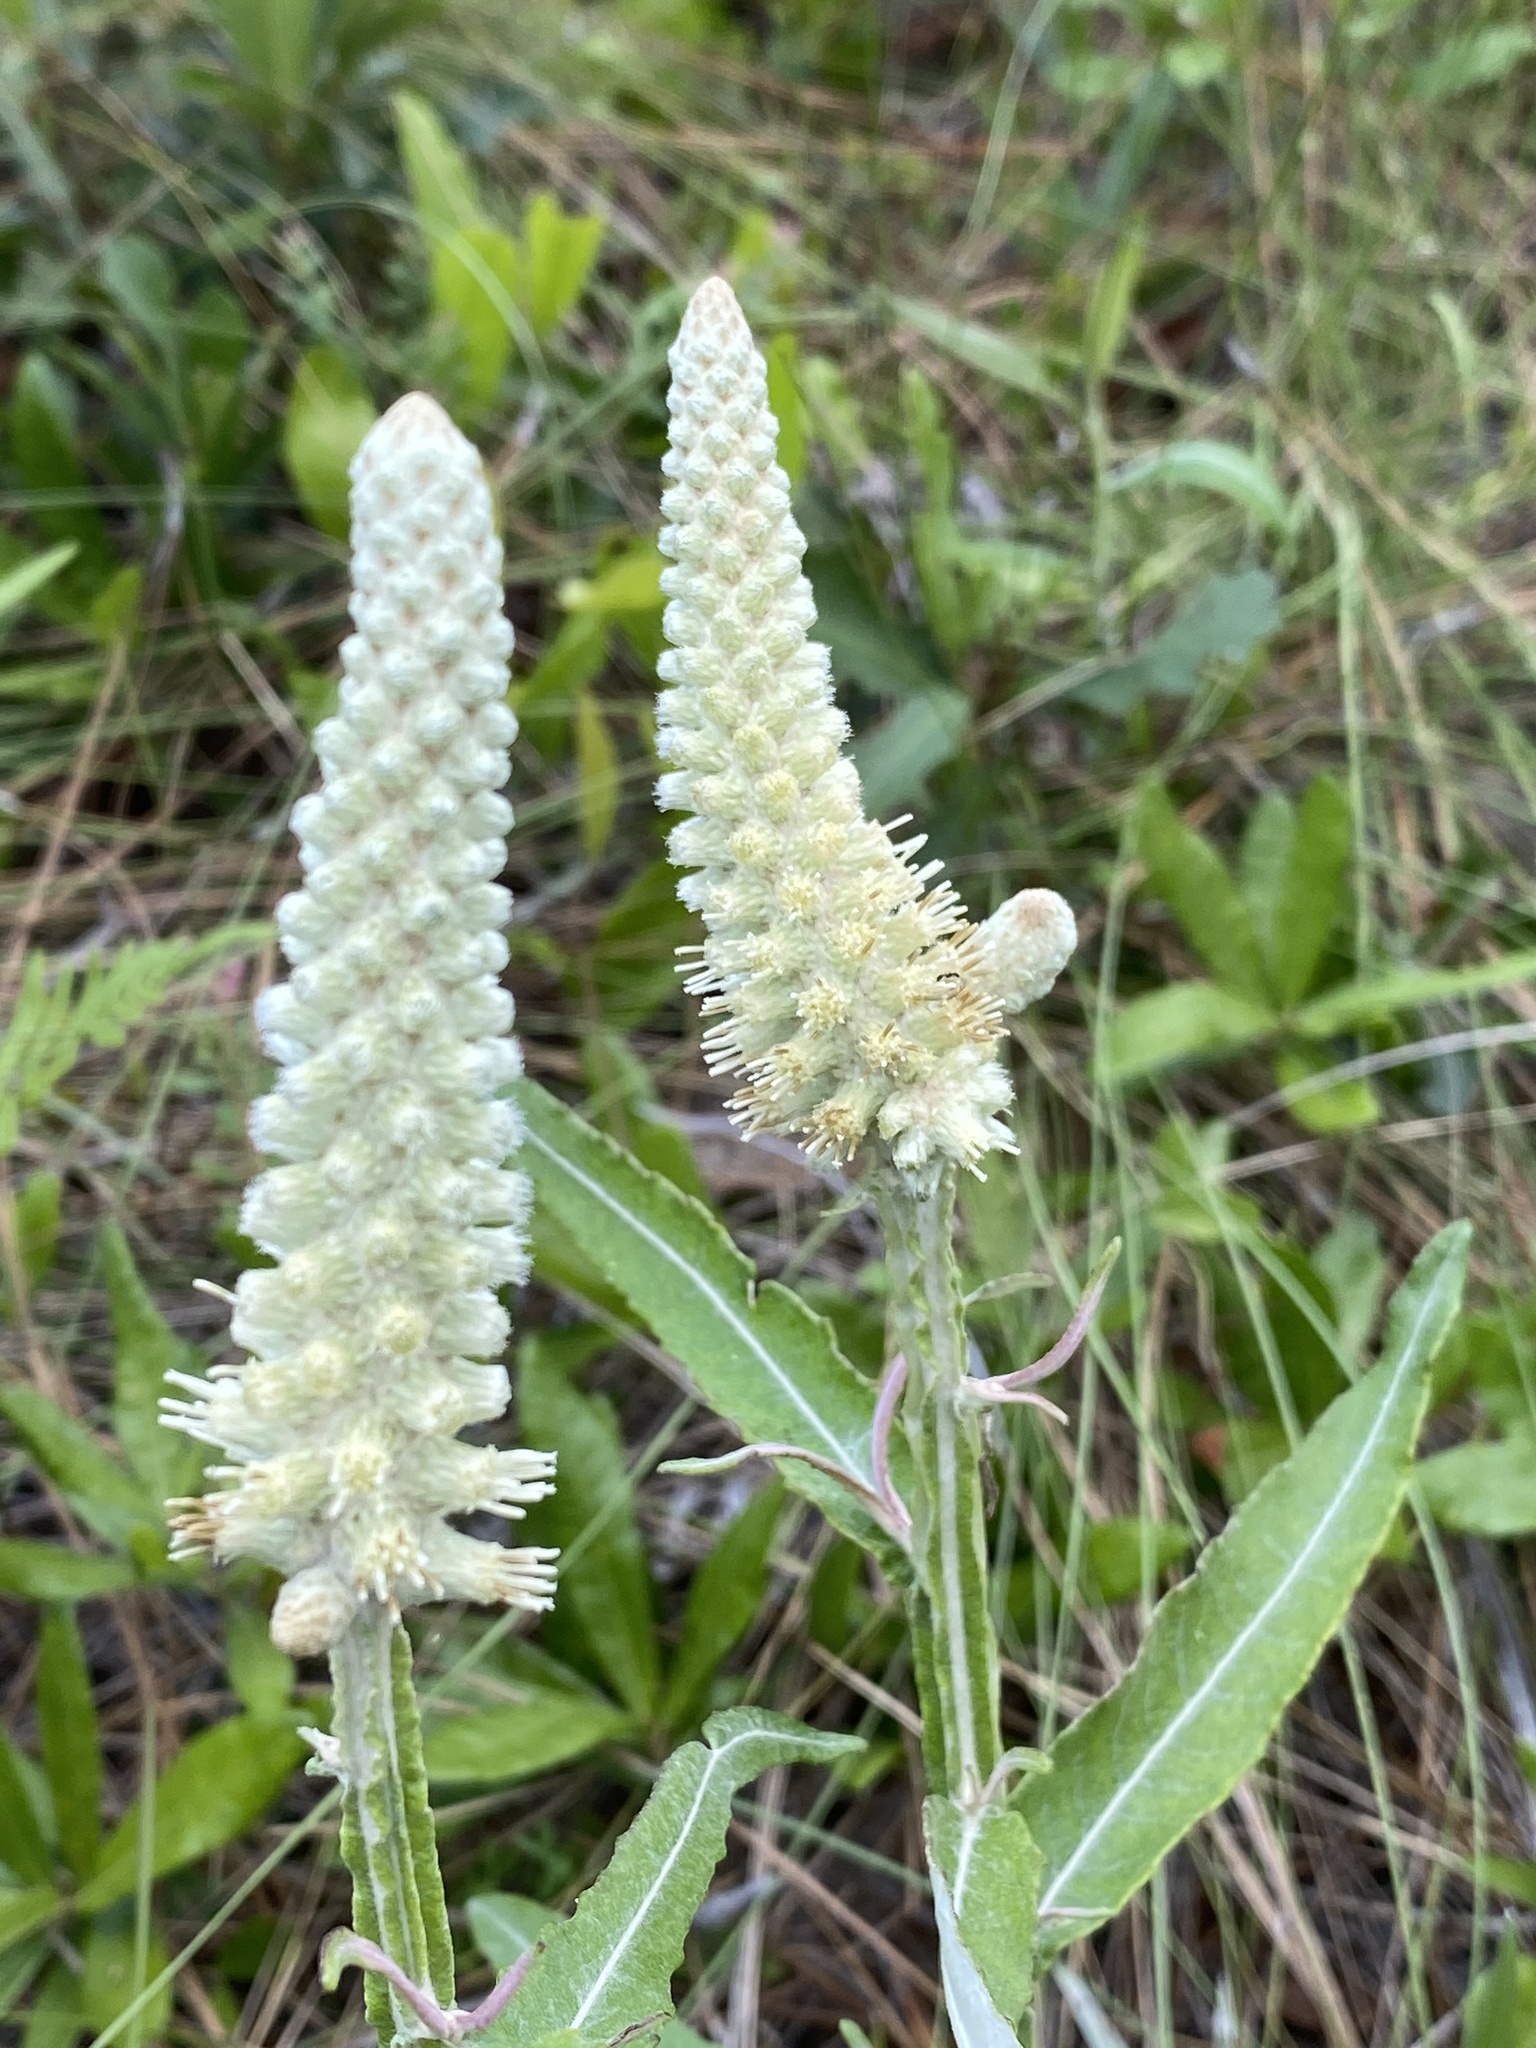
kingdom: Plantae
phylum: Tracheophyta
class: Magnoliopsida
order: Asterales
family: Asteraceae
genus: Pterocaulon
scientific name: Pterocaulon pycnostachyum
